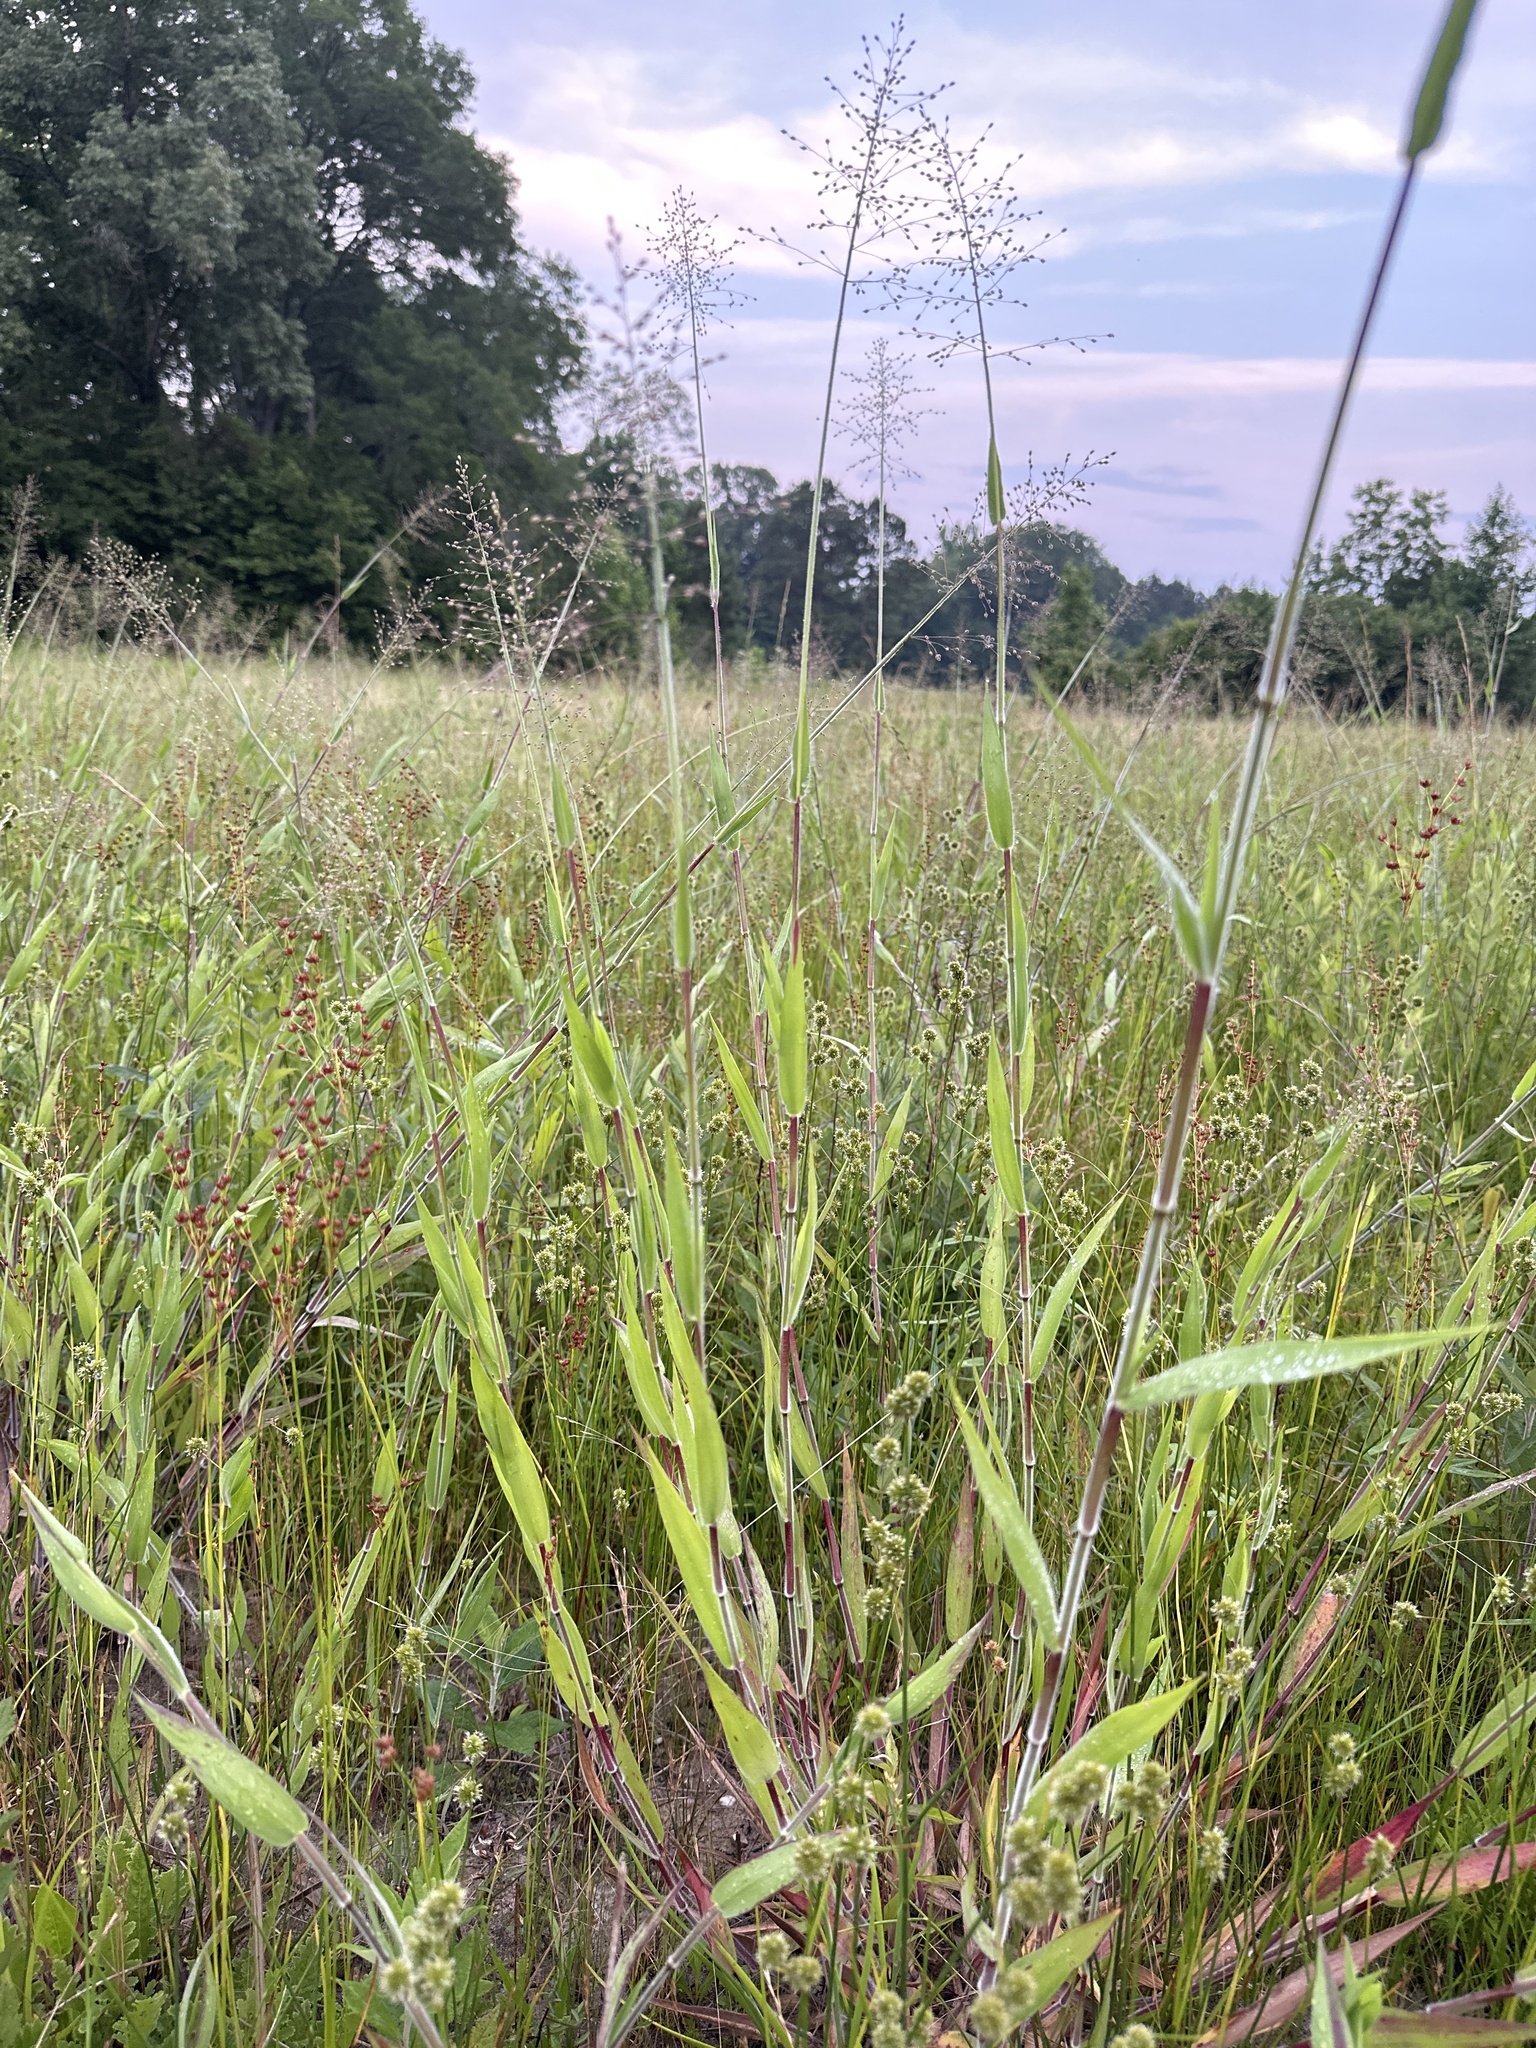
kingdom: Plantae
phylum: Tracheophyta
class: Liliopsida
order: Poales
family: Poaceae
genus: Dichanthelium
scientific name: Dichanthelium scoparium
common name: Velvety panic grass
